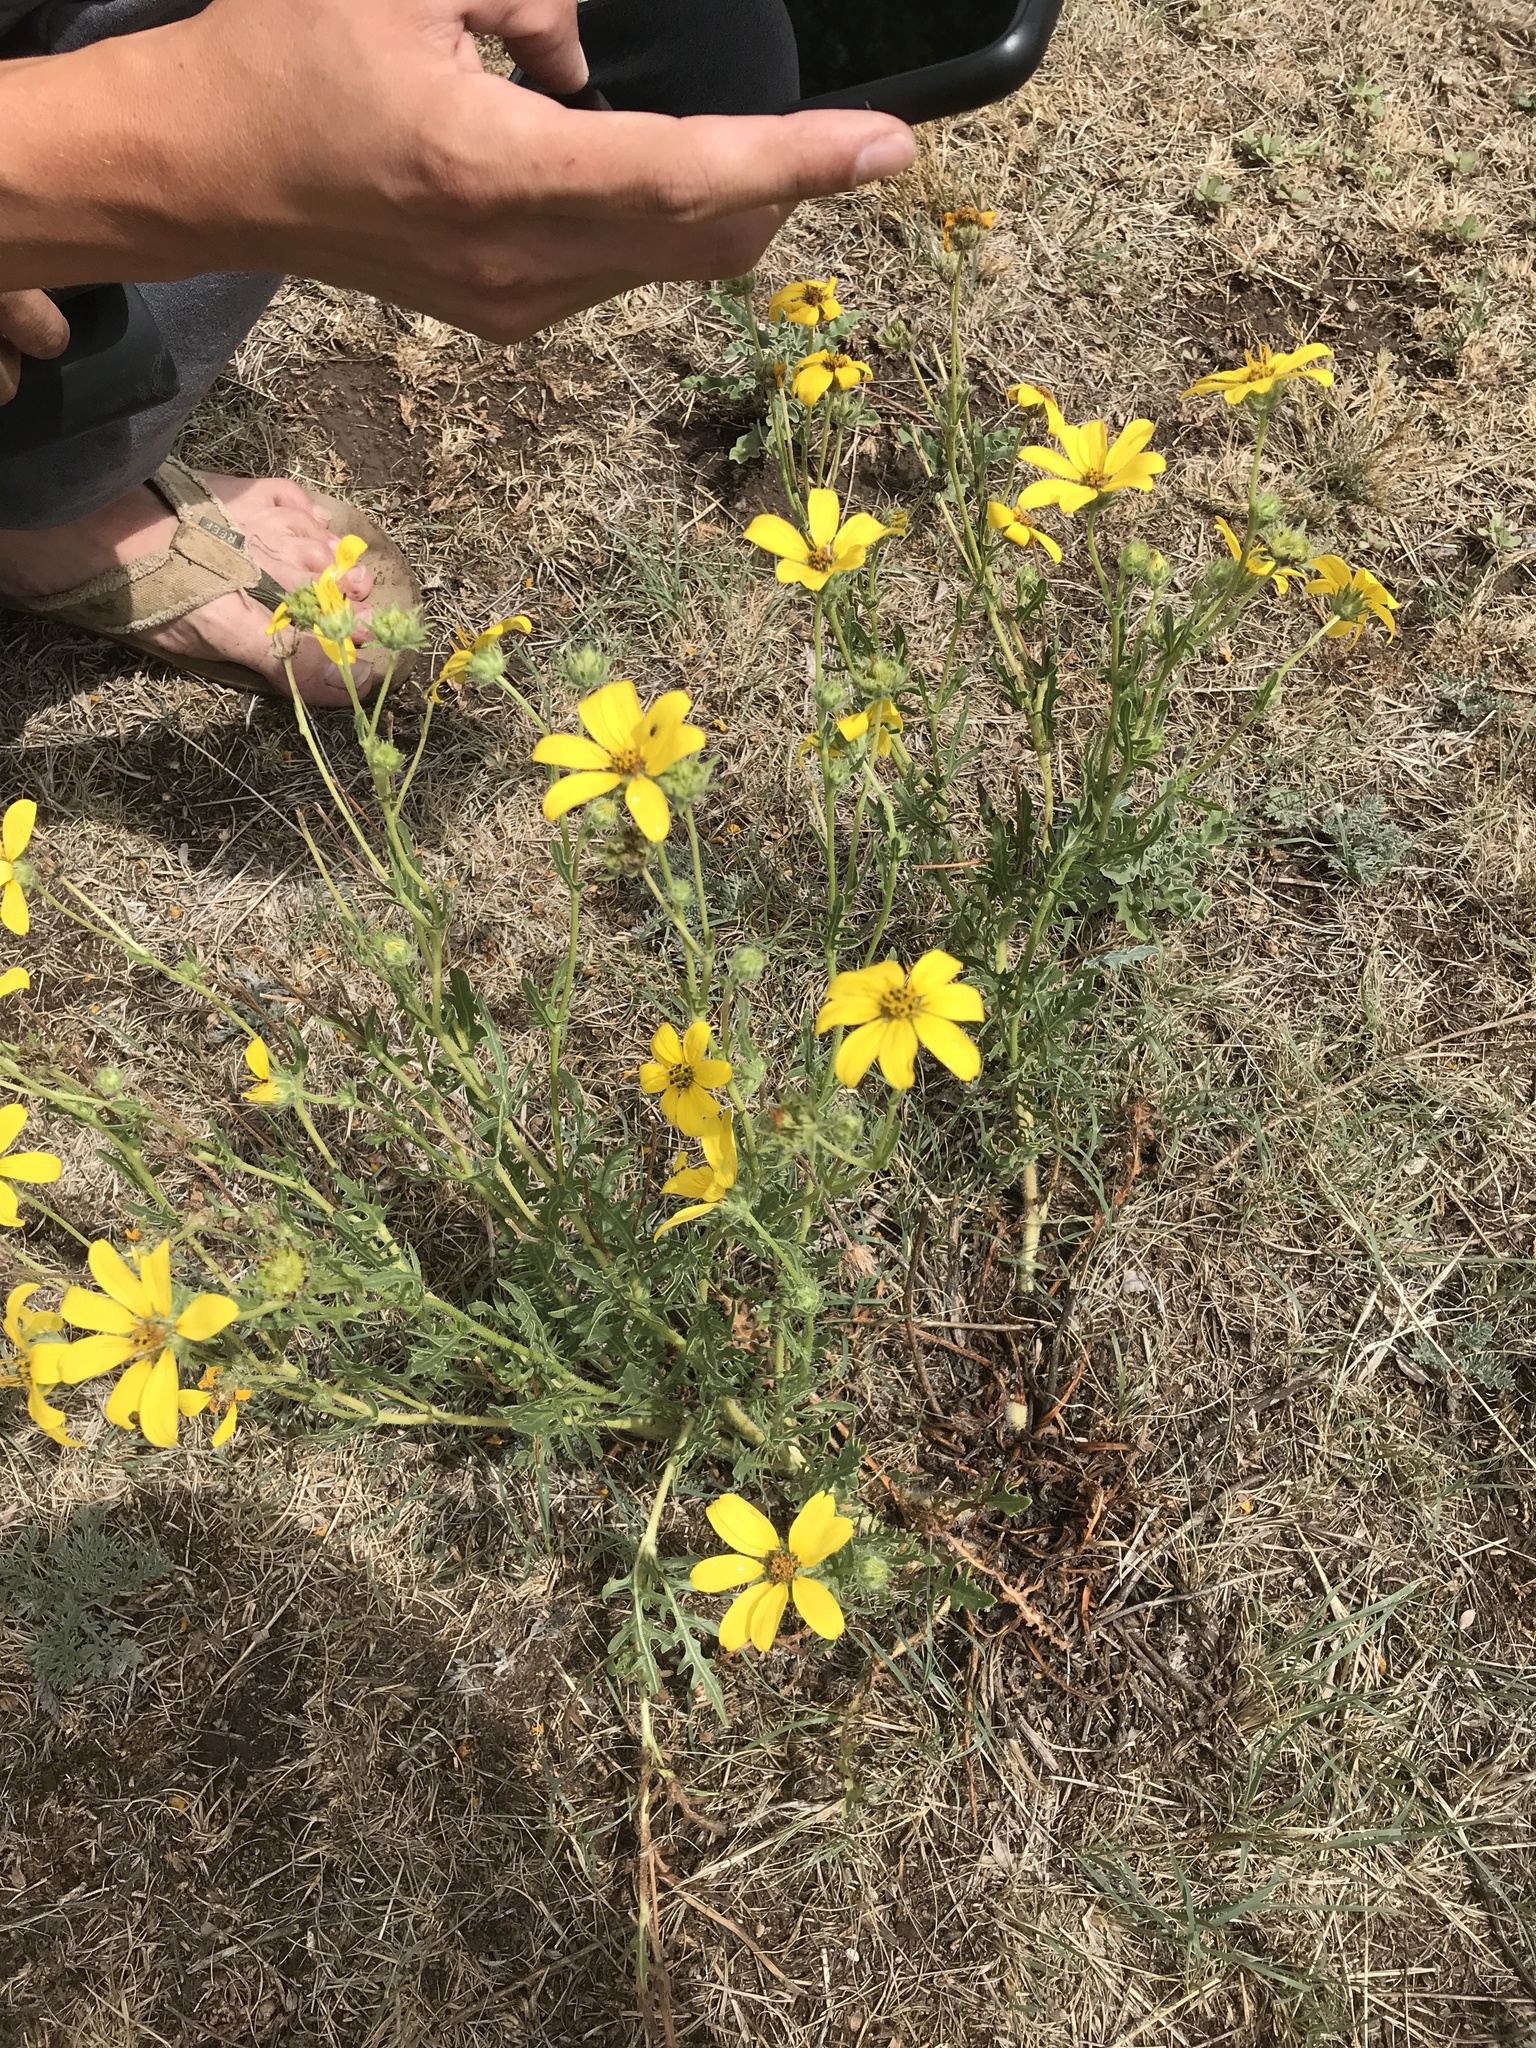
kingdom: Plantae
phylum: Tracheophyta
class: Magnoliopsida
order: Asterales
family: Asteraceae
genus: Engelmannia
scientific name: Engelmannia peristenia
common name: Engelmann's daisy
